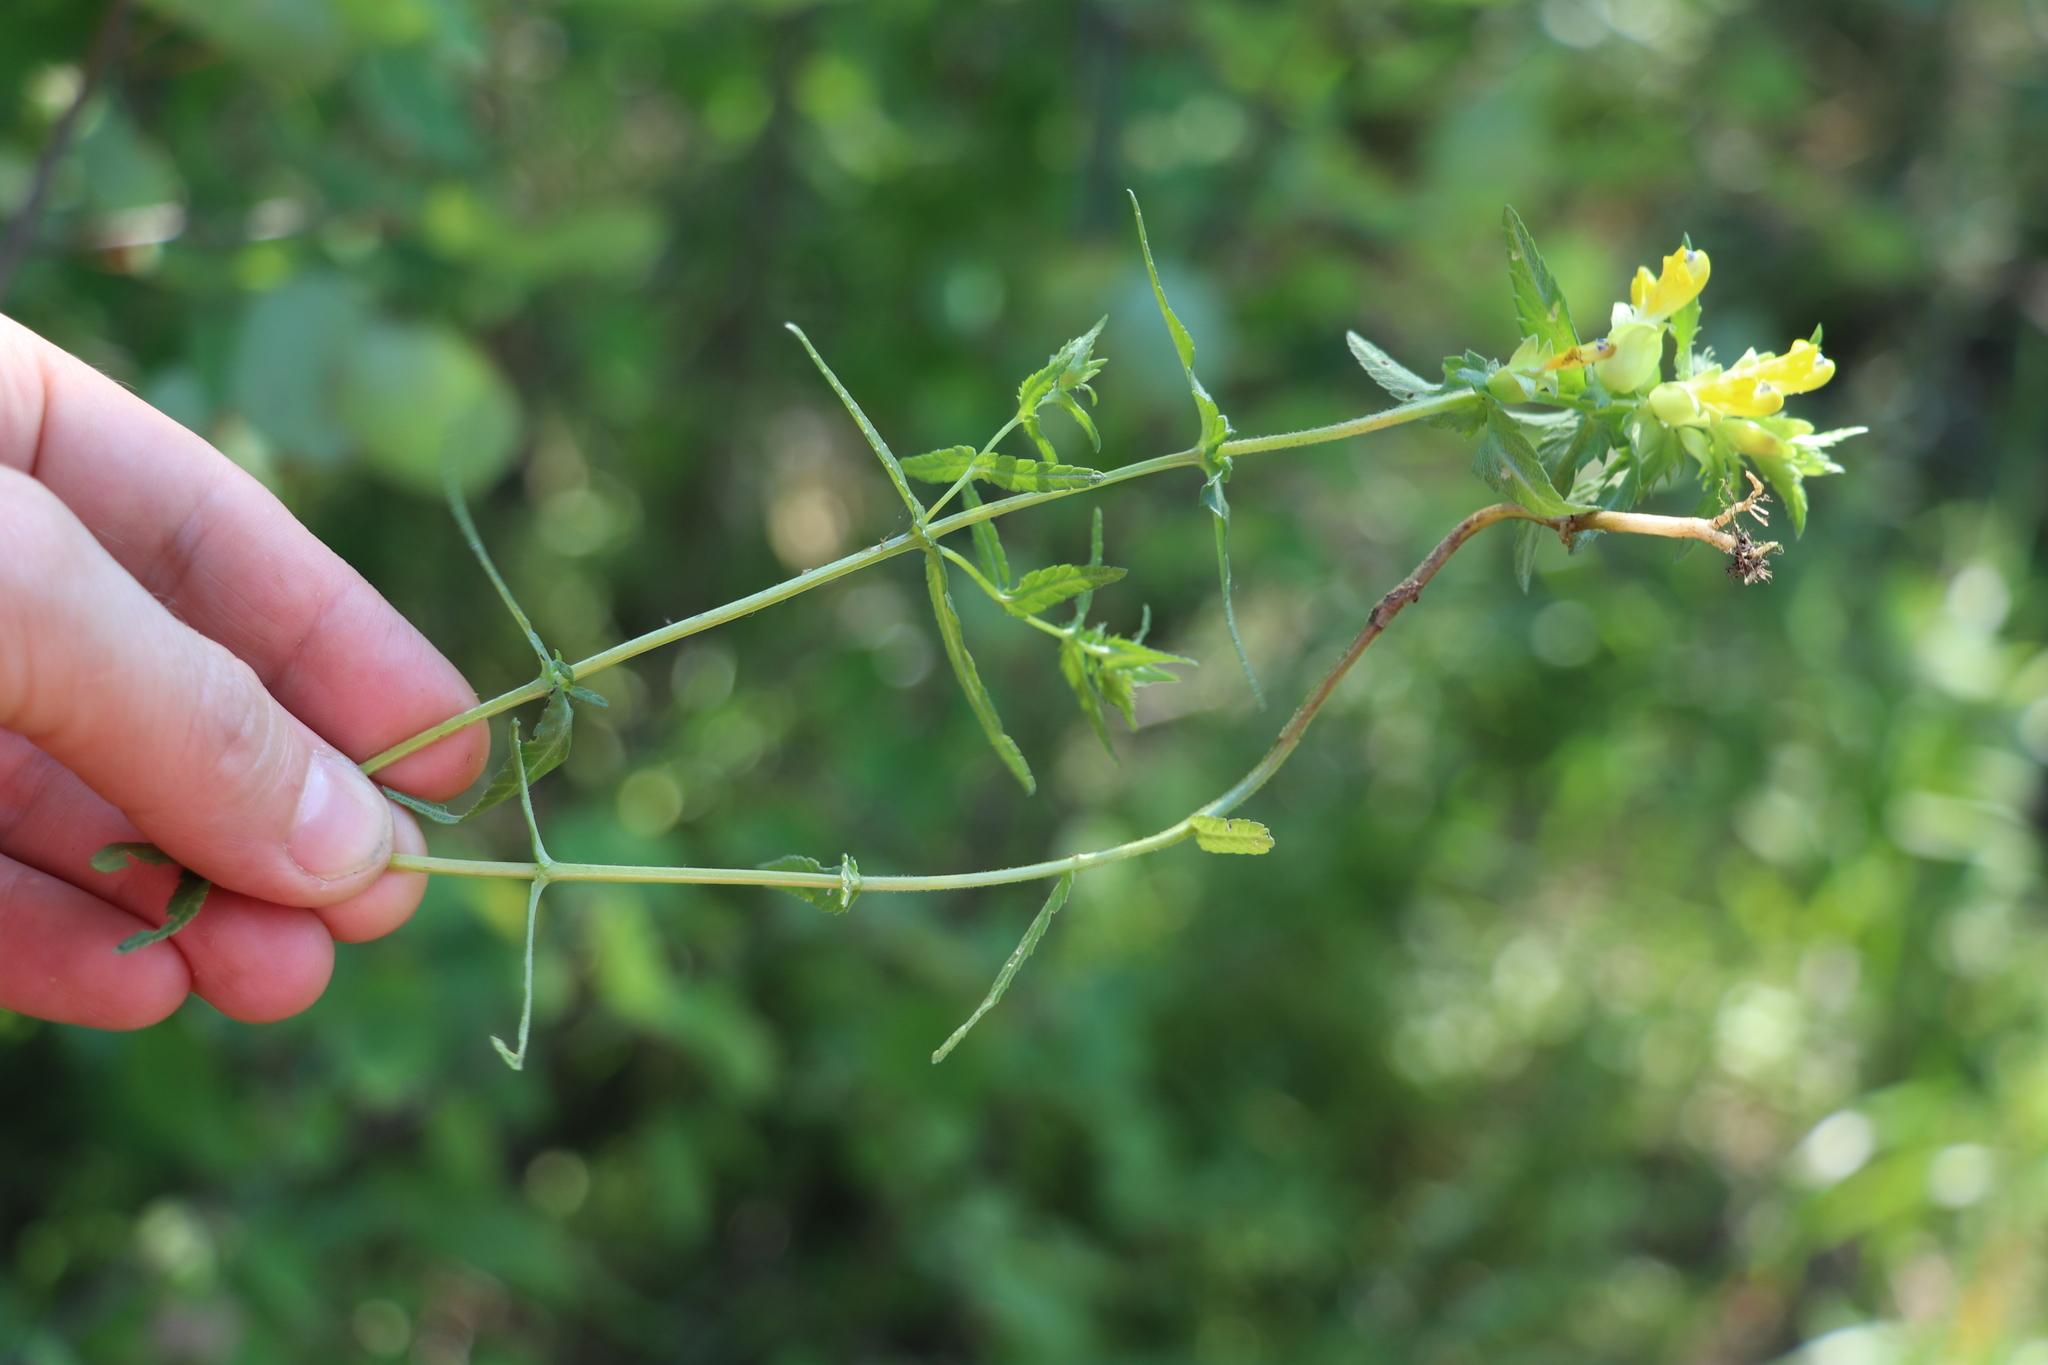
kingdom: Plantae
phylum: Tracheophyta
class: Magnoliopsida
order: Lamiales
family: Orobanchaceae
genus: Rhinanthus
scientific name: Rhinanthus minor
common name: Yellow-rattle
